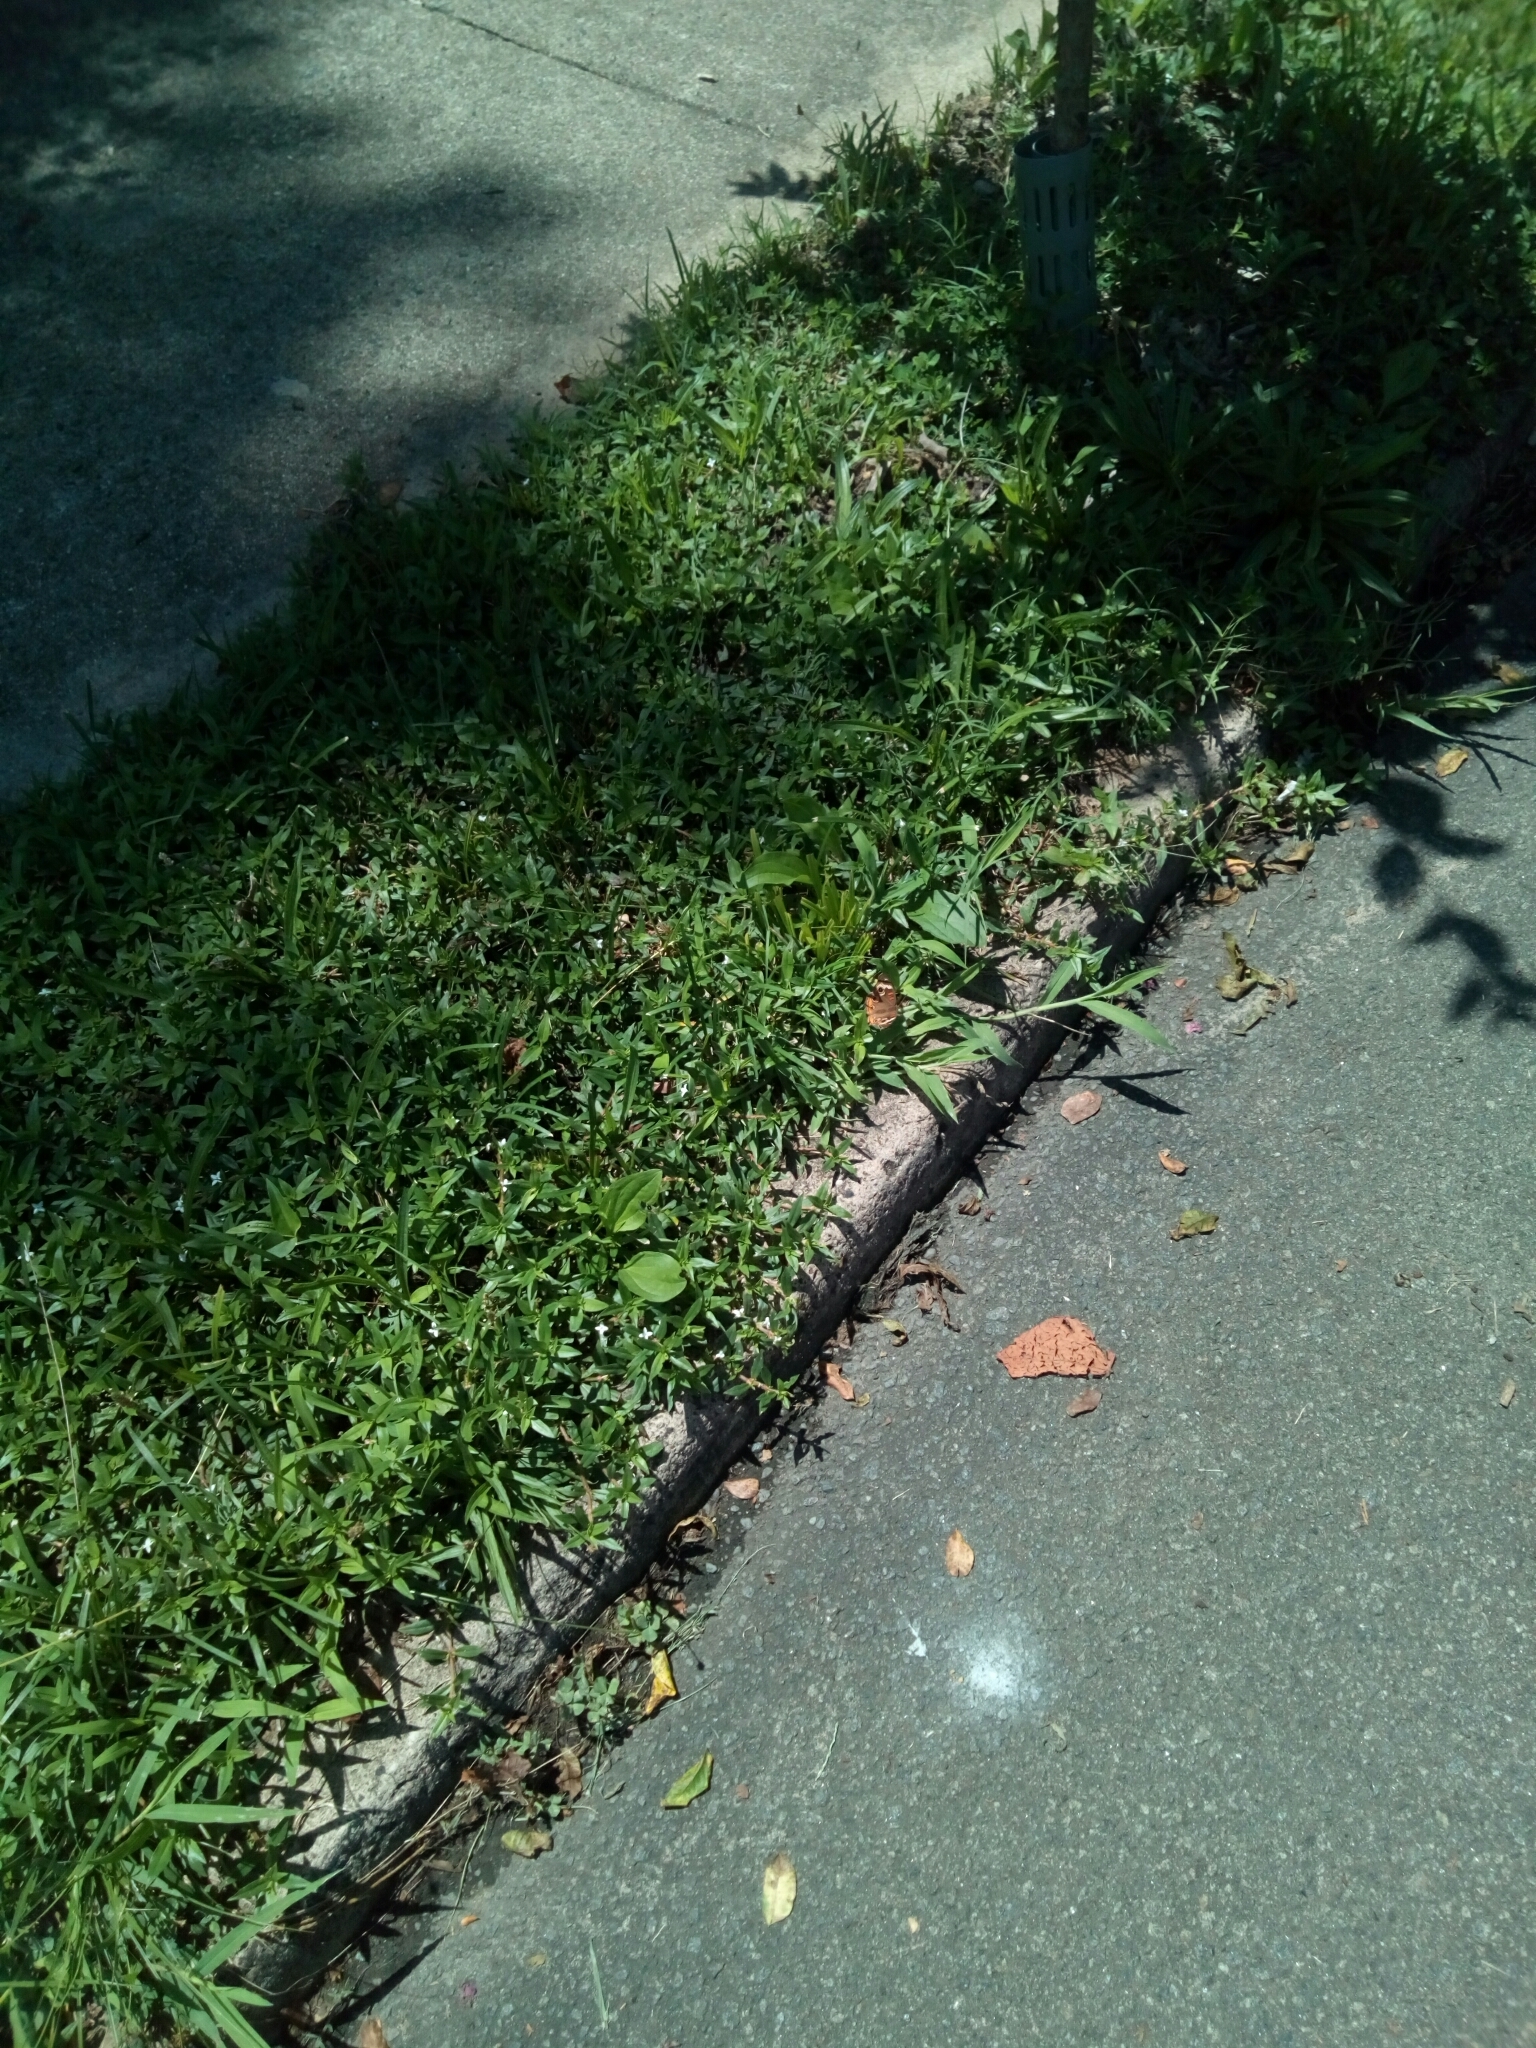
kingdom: Animalia
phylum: Arthropoda
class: Insecta
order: Lepidoptera
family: Nymphalidae
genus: Junonia
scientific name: Junonia coenia
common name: Common buckeye
